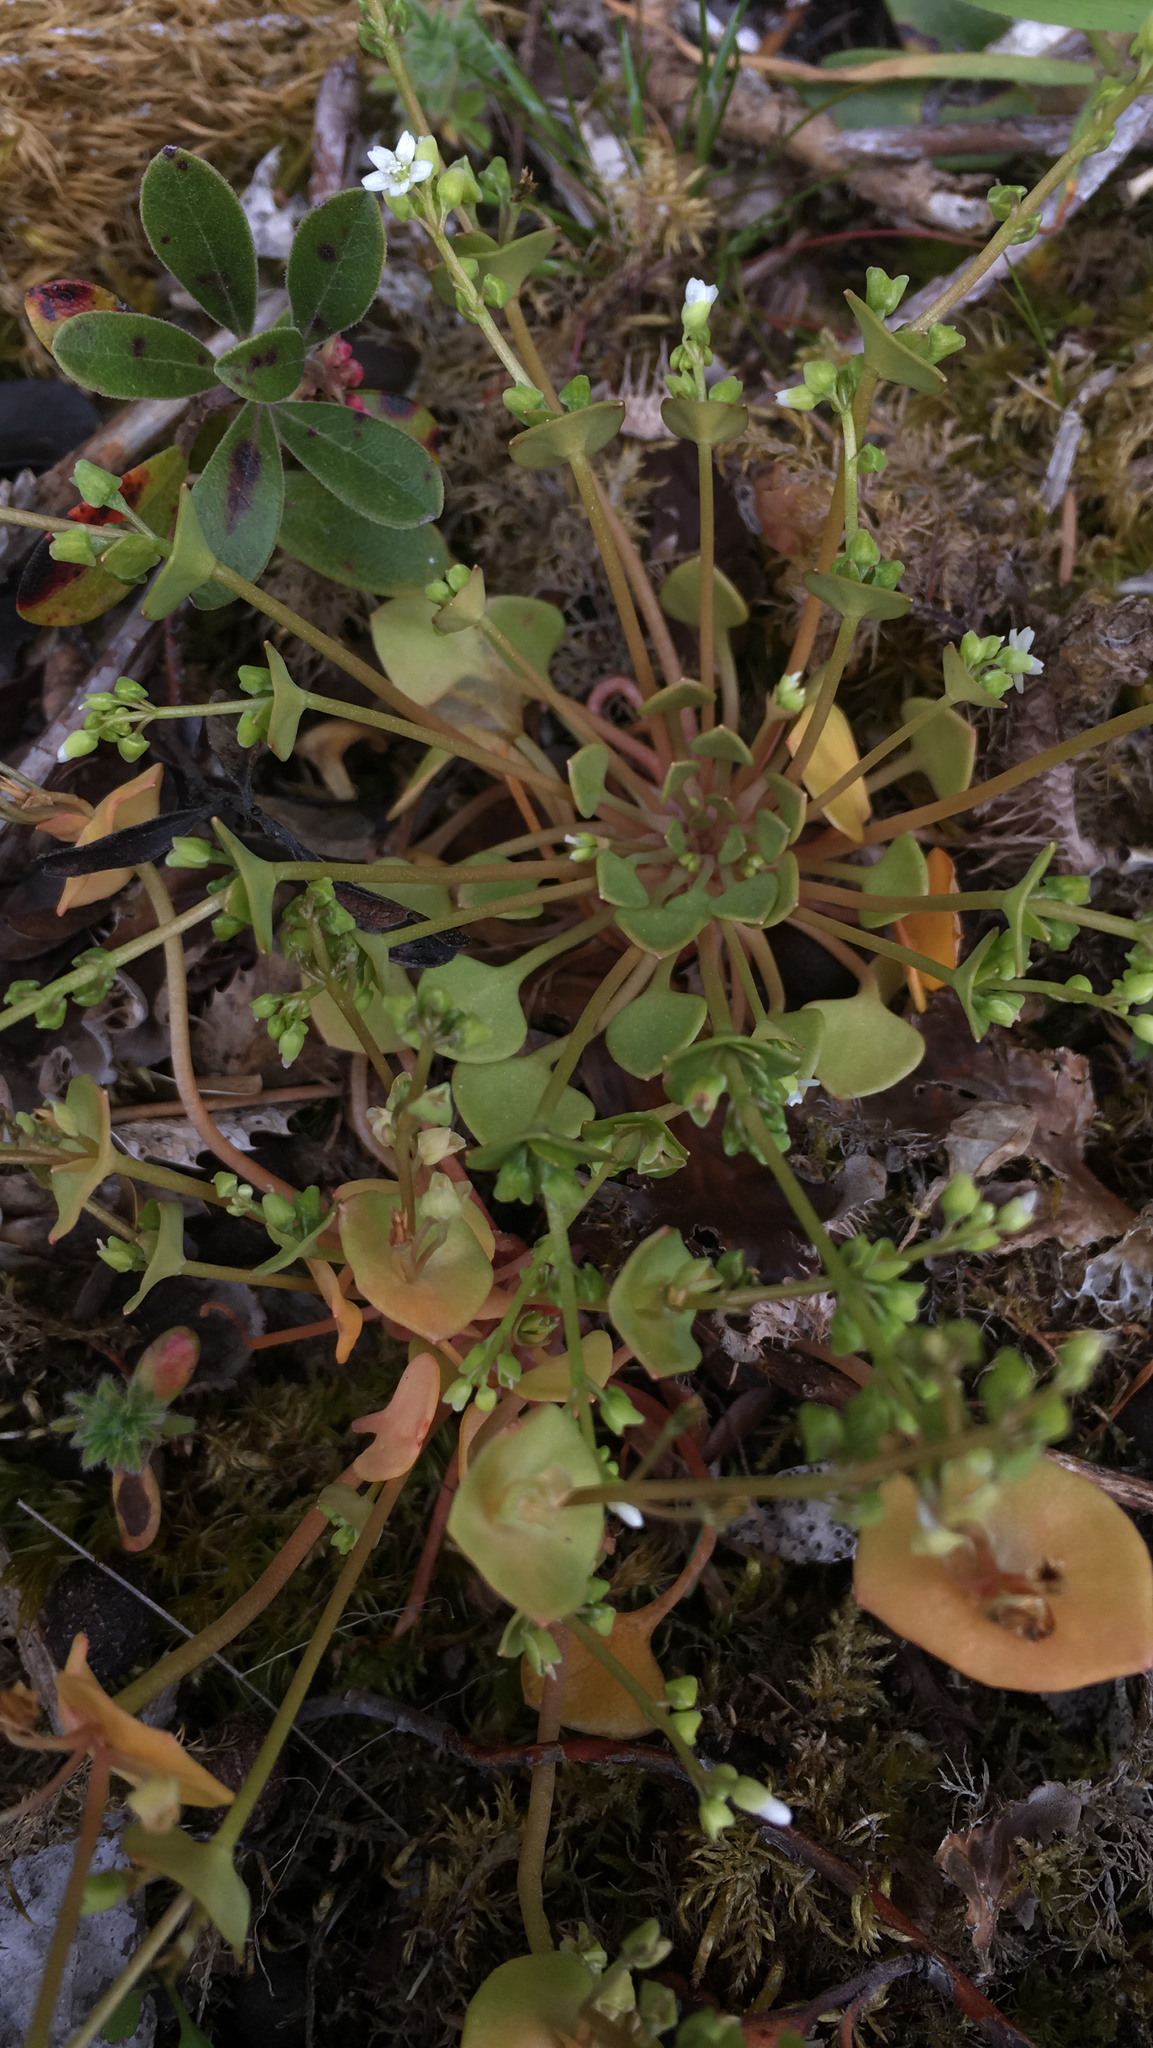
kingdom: Plantae
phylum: Tracheophyta
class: Magnoliopsida
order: Caryophyllales
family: Montiaceae
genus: Claytonia
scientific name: Claytonia rubra
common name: Erubescent miner's-lettuce
